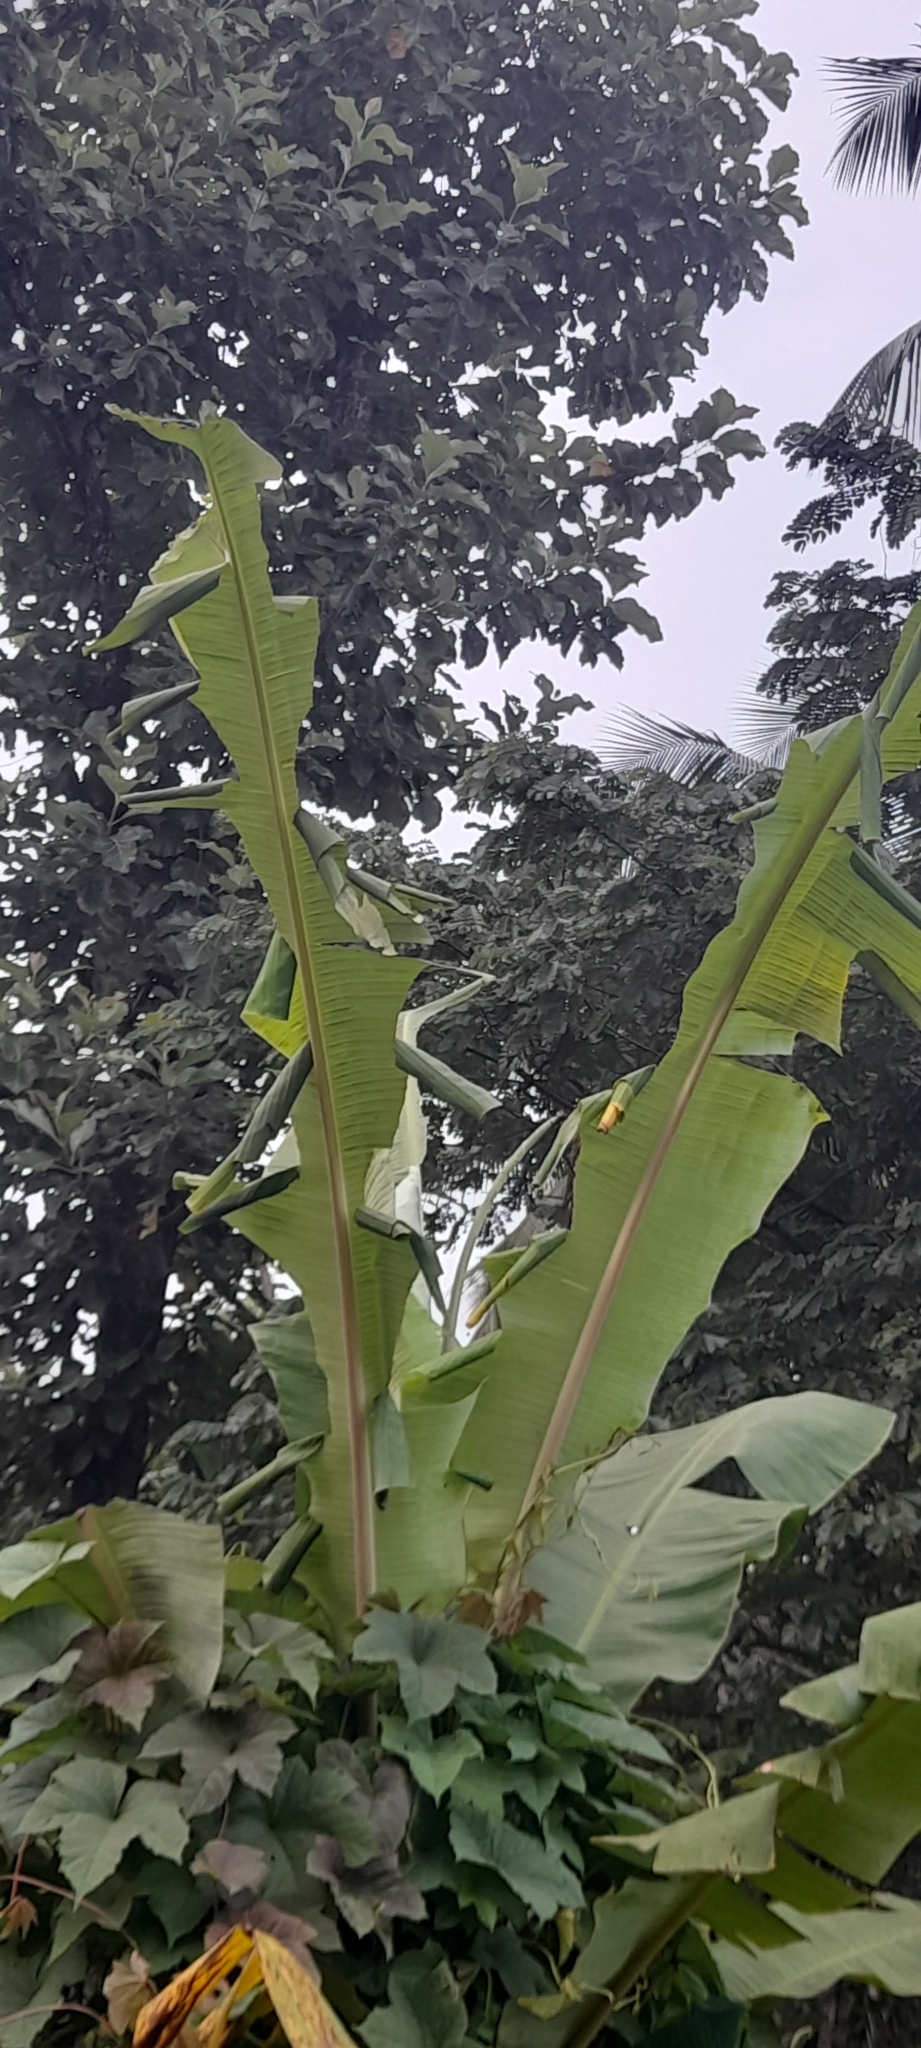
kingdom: Animalia
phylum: Arthropoda
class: Insecta
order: Lepidoptera
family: Hesperiidae
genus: Erionota
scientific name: Erionota torus
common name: Rounded palm-redeye
